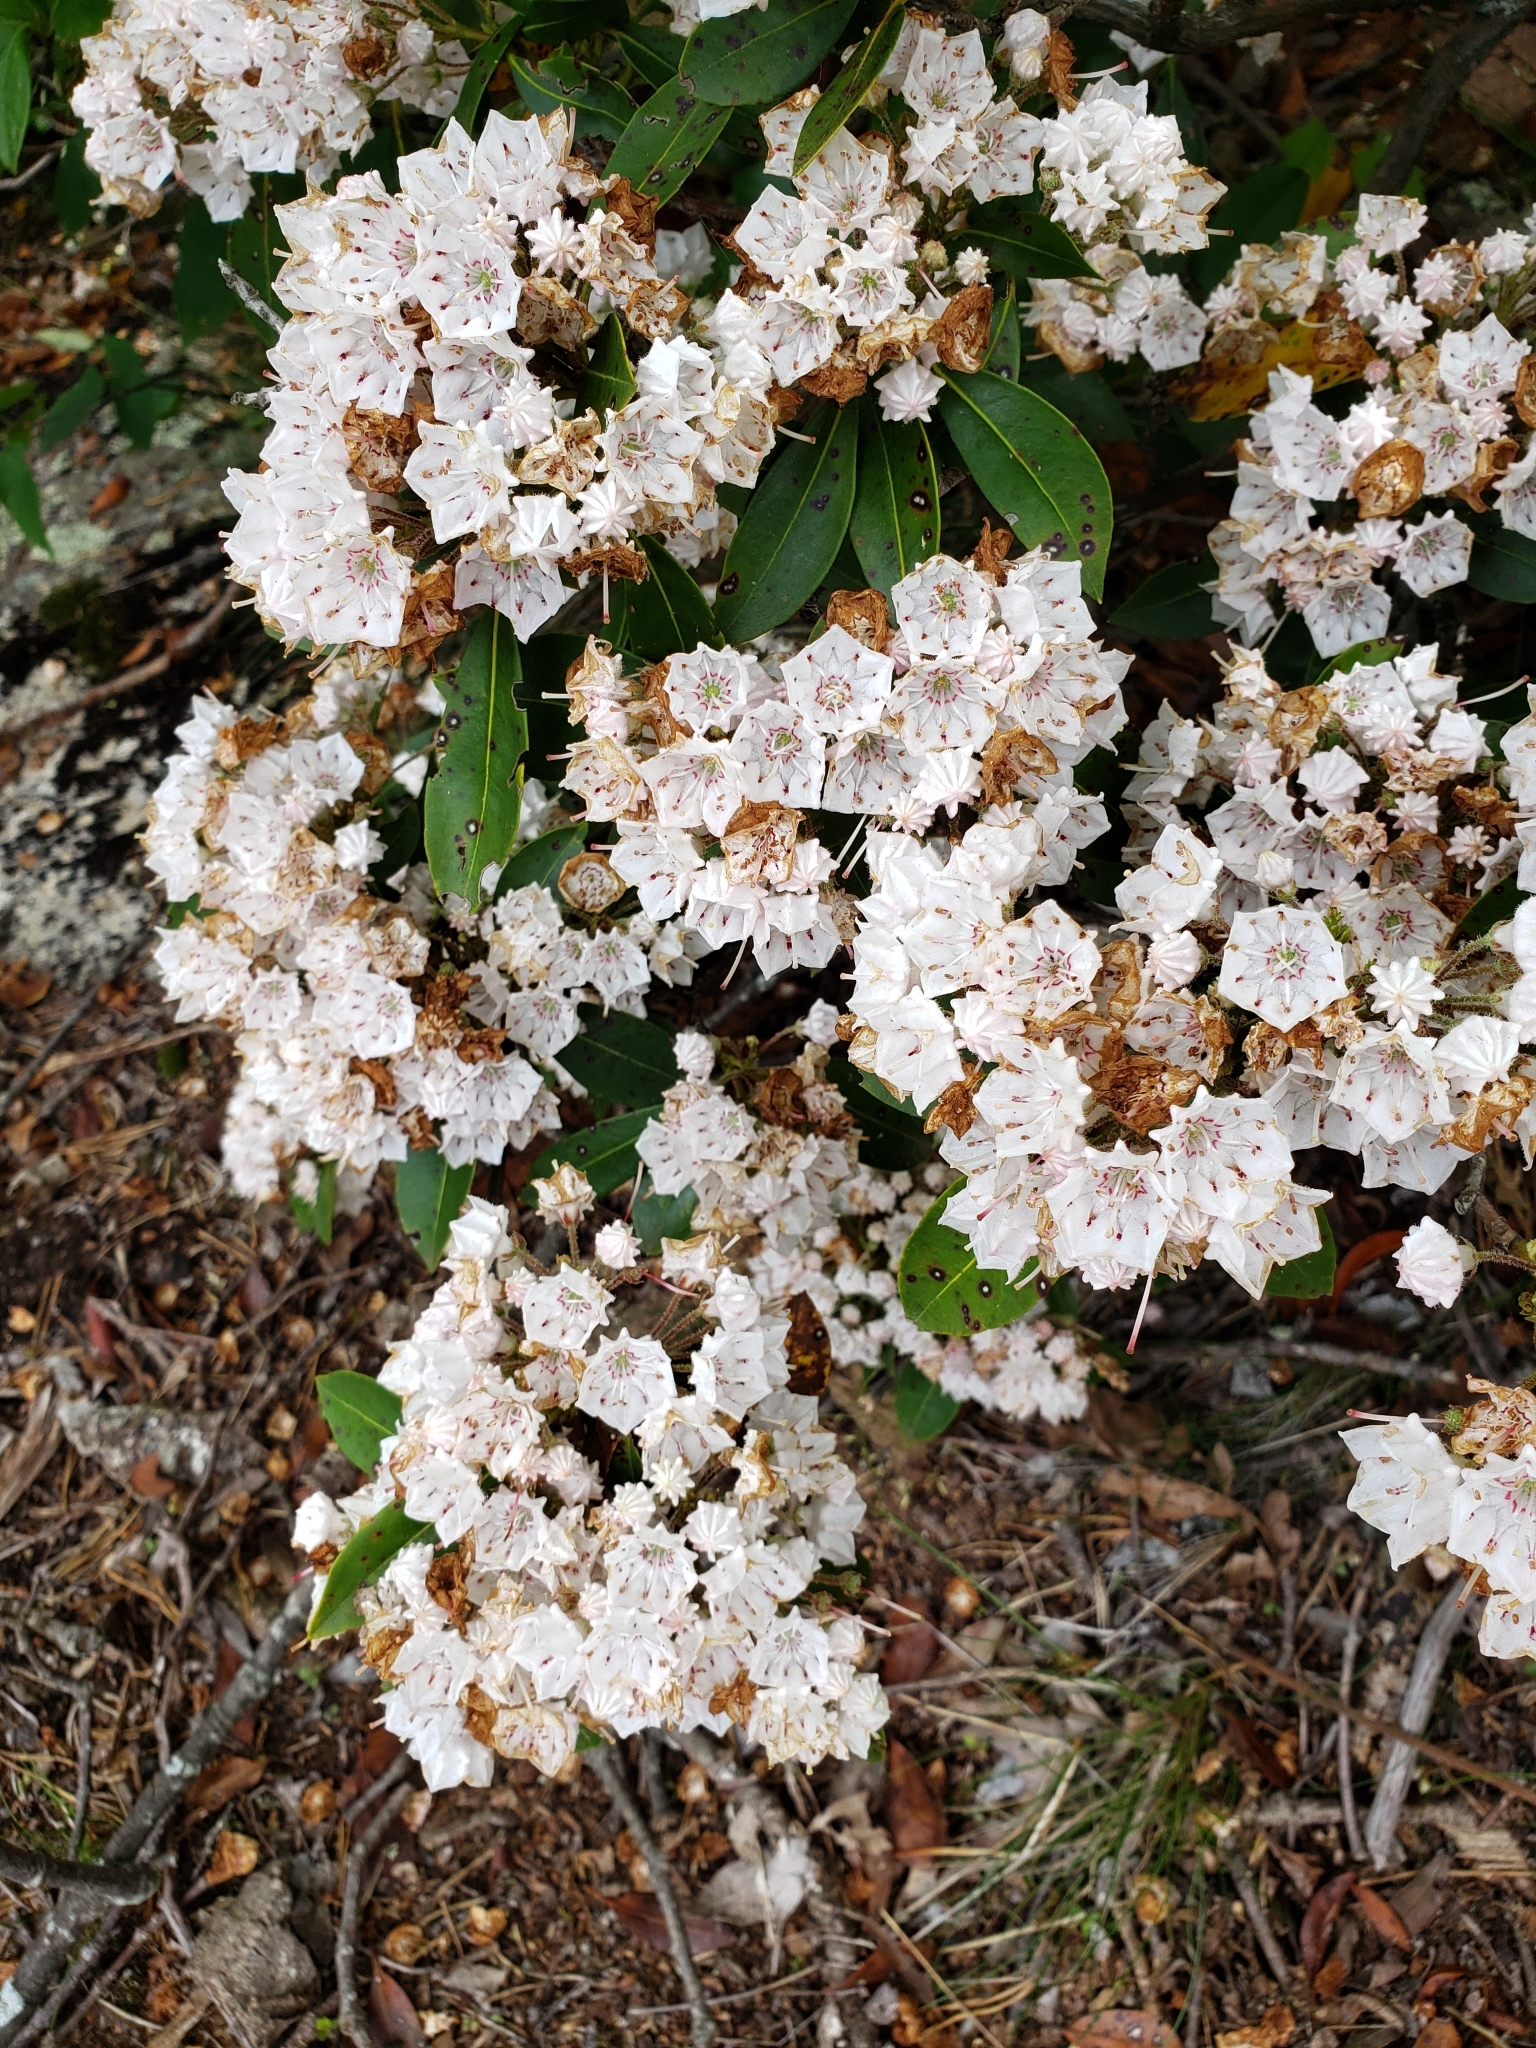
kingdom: Plantae
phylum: Tracheophyta
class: Magnoliopsida
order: Ericales
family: Ericaceae
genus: Kalmia
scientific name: Kalmia latifolia
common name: Mountain-laurel
